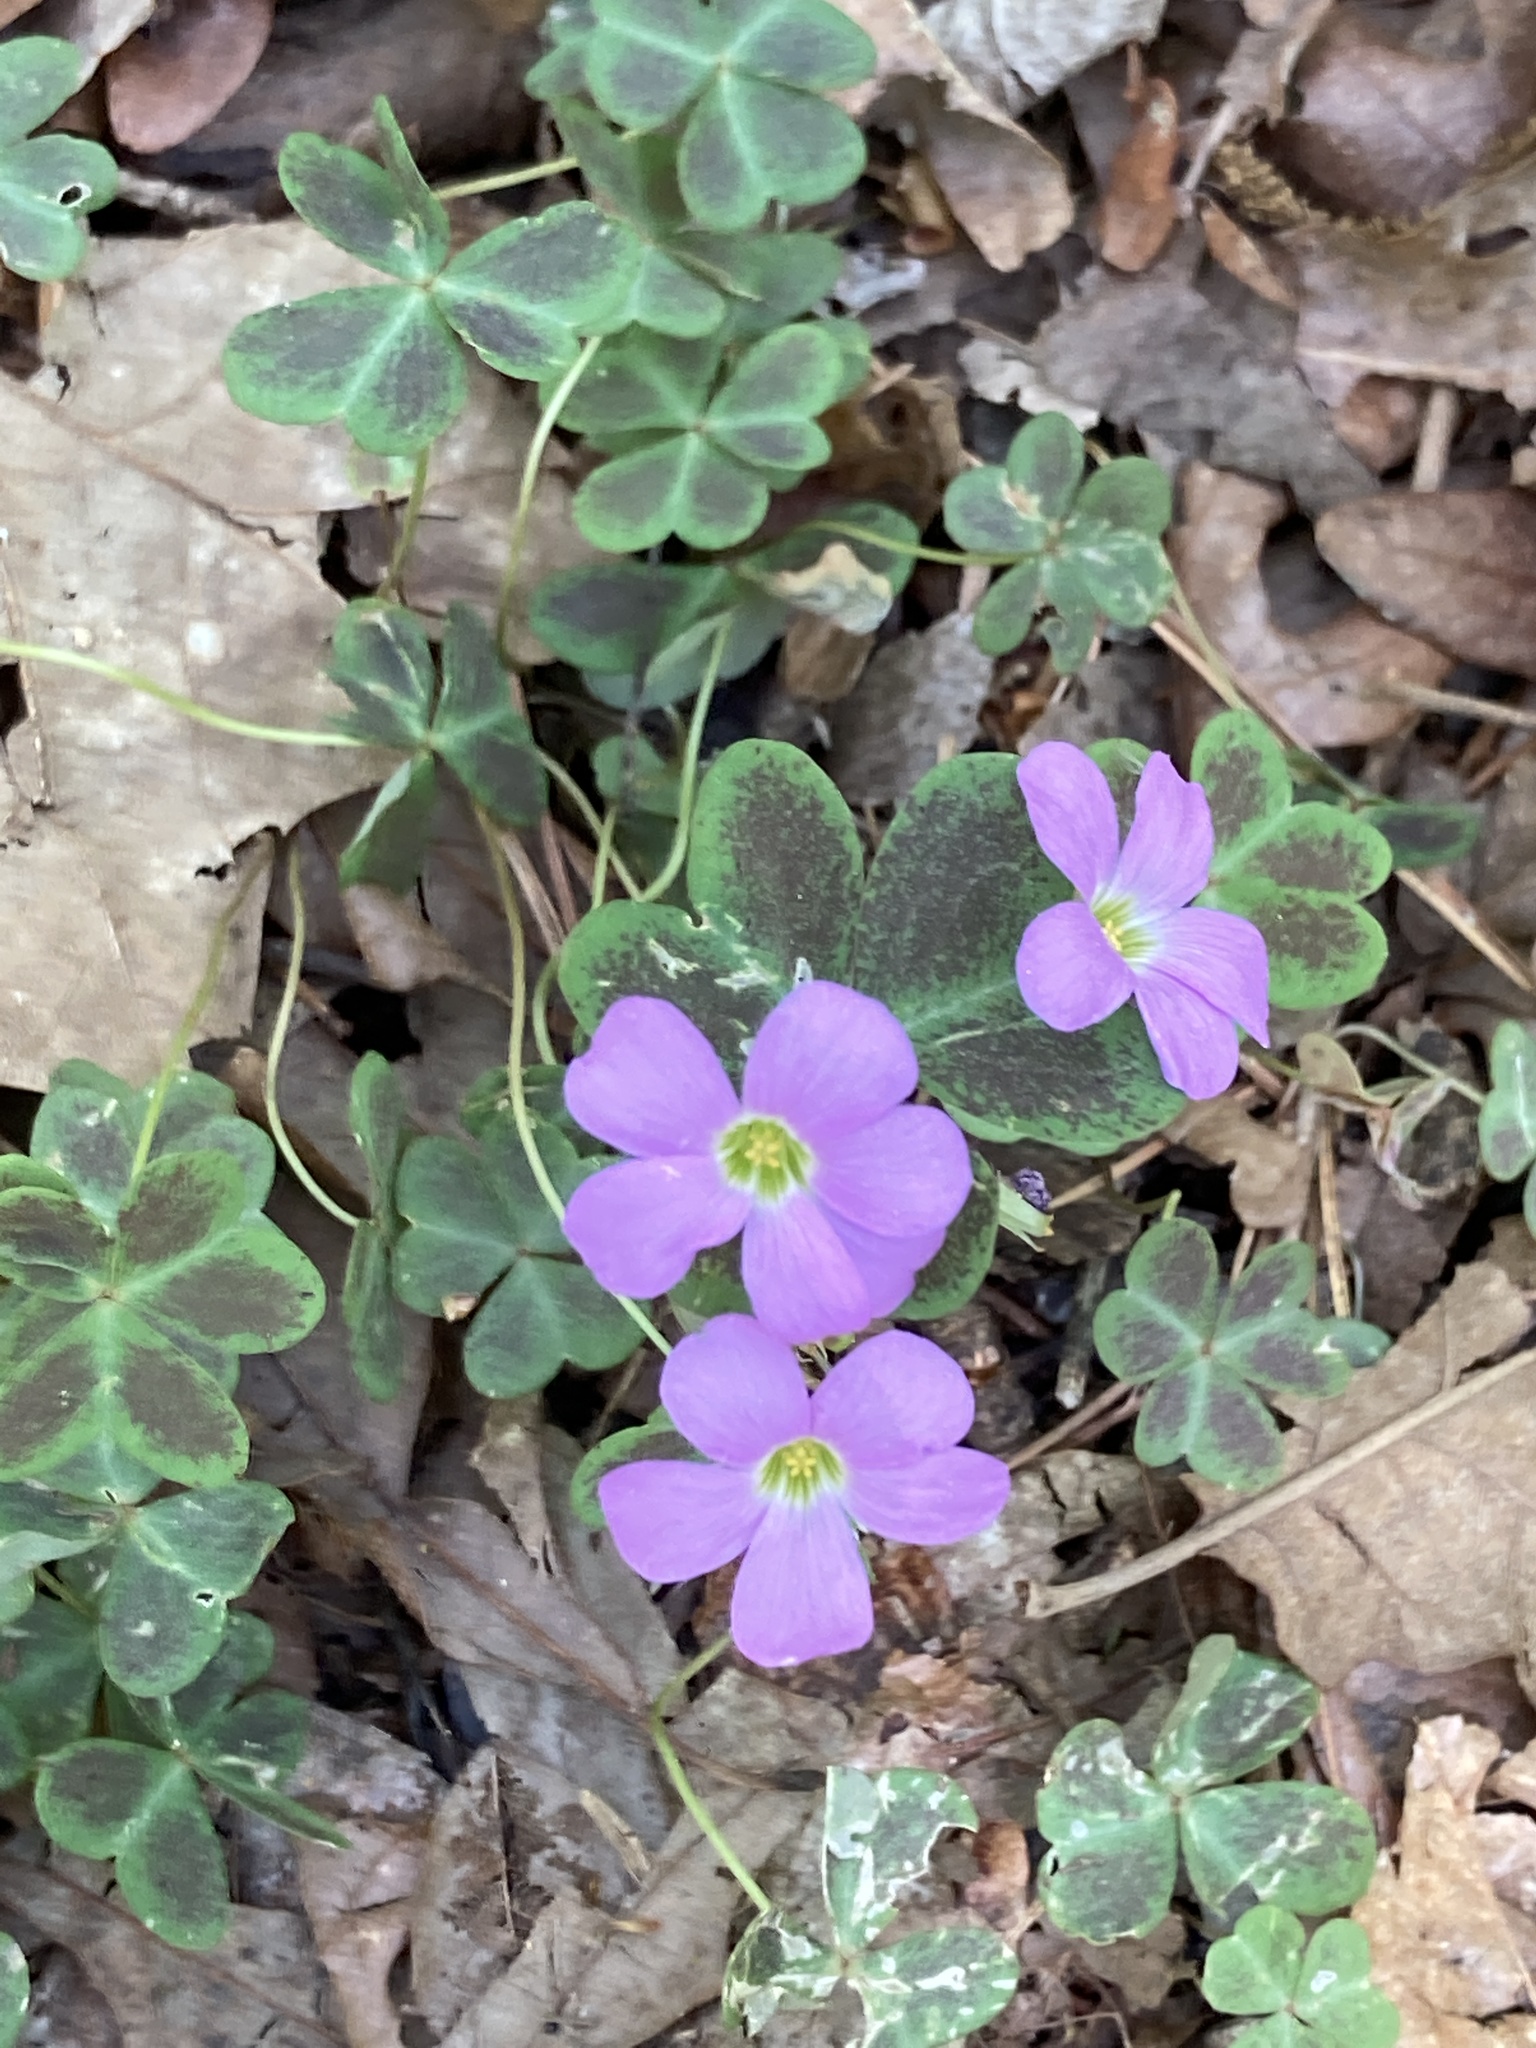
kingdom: Plantae
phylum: Tracheophyta
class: Magnoliopsida
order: Oxalidales
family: Oxalidaceae
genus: Oxalis
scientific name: Oxalis violacea
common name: Violet wood-sorrel
